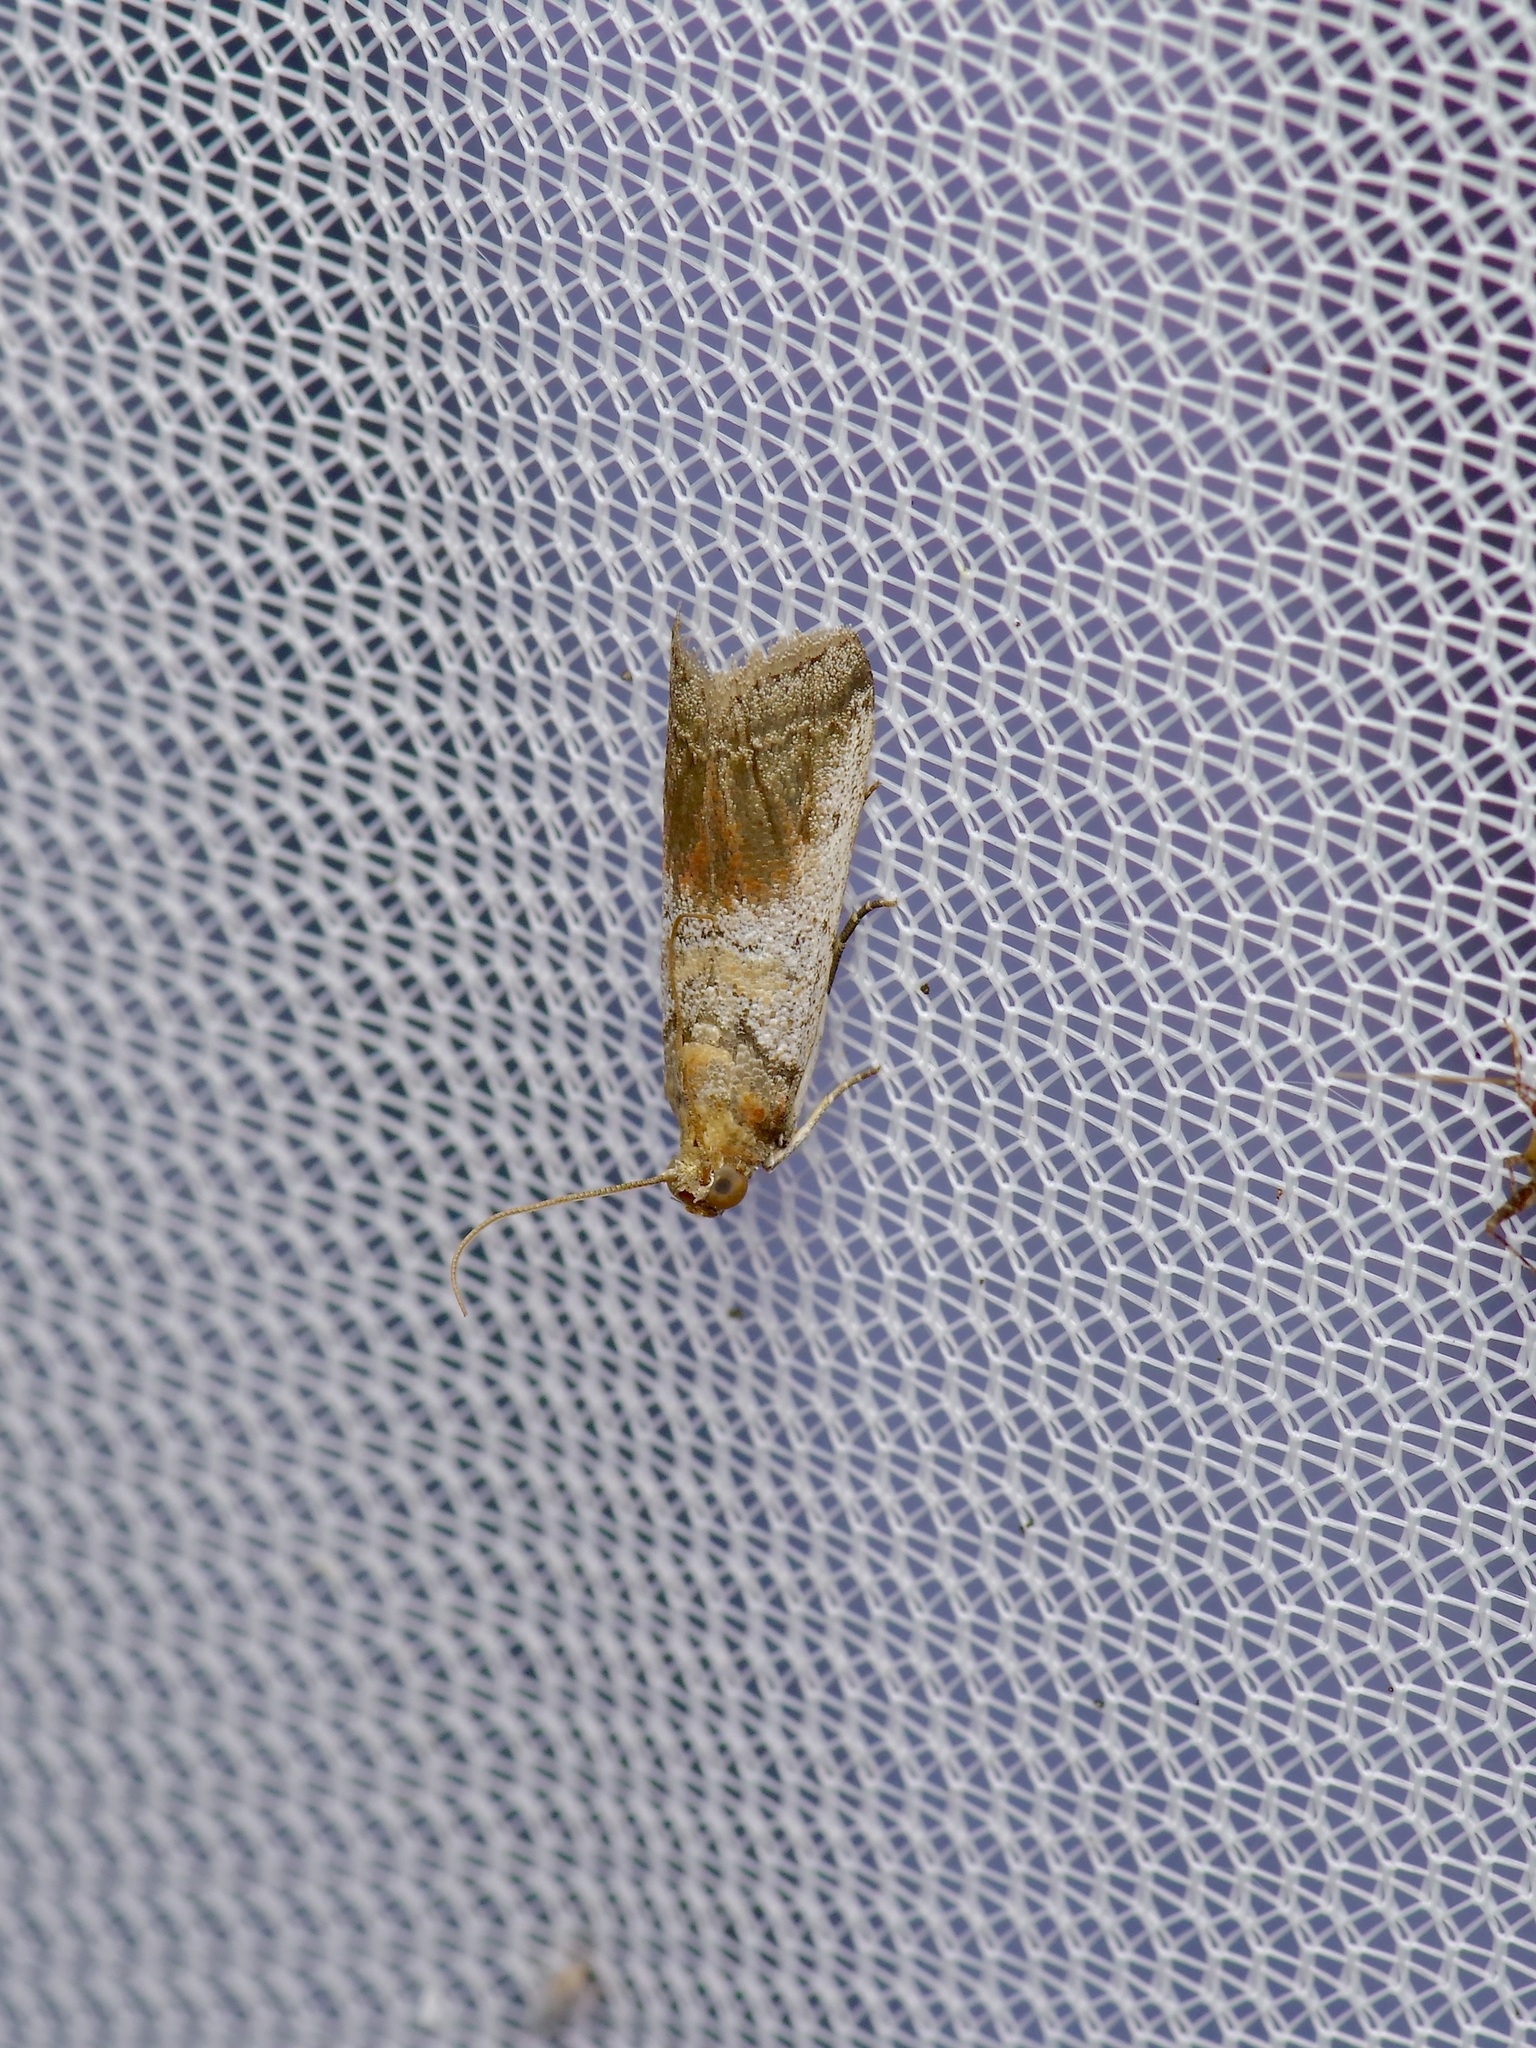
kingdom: Animalia
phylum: Arthropoda
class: Insecta
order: Lepidoptera
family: Pyralidae
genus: Chararica
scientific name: Chararica hystriculella
